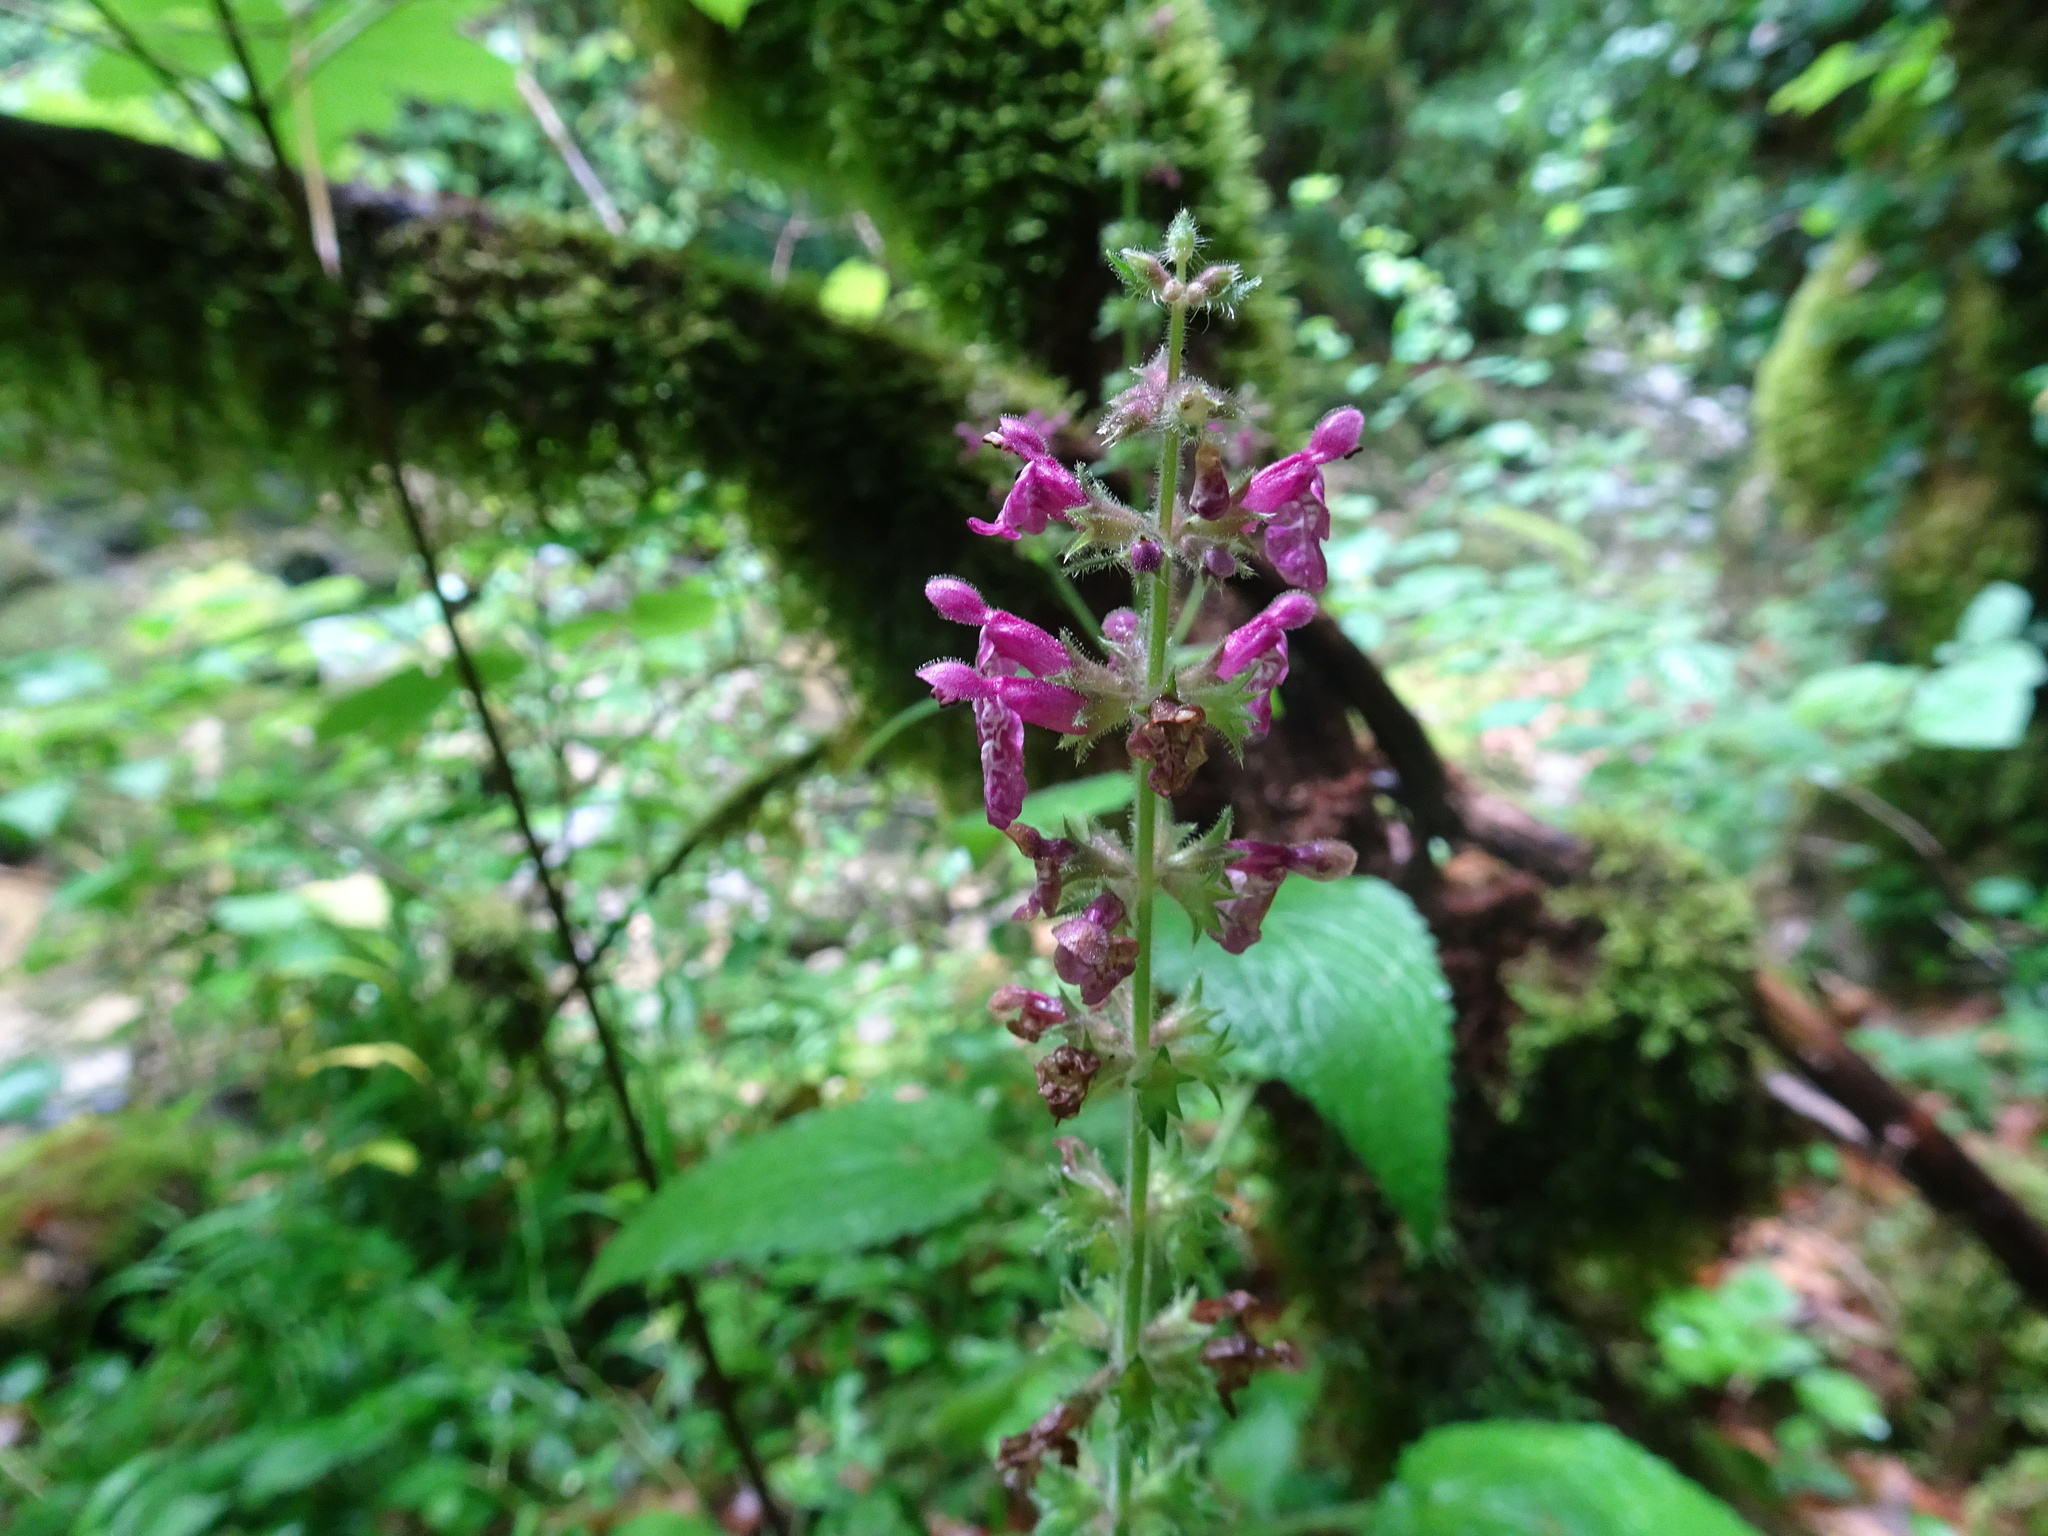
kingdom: Plantae
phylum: Tracheophyta
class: Magnoliopsida
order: Lamiales
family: Lamiaceae
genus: Stachys
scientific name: Stachys sylvatica
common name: Hedge woundwort
